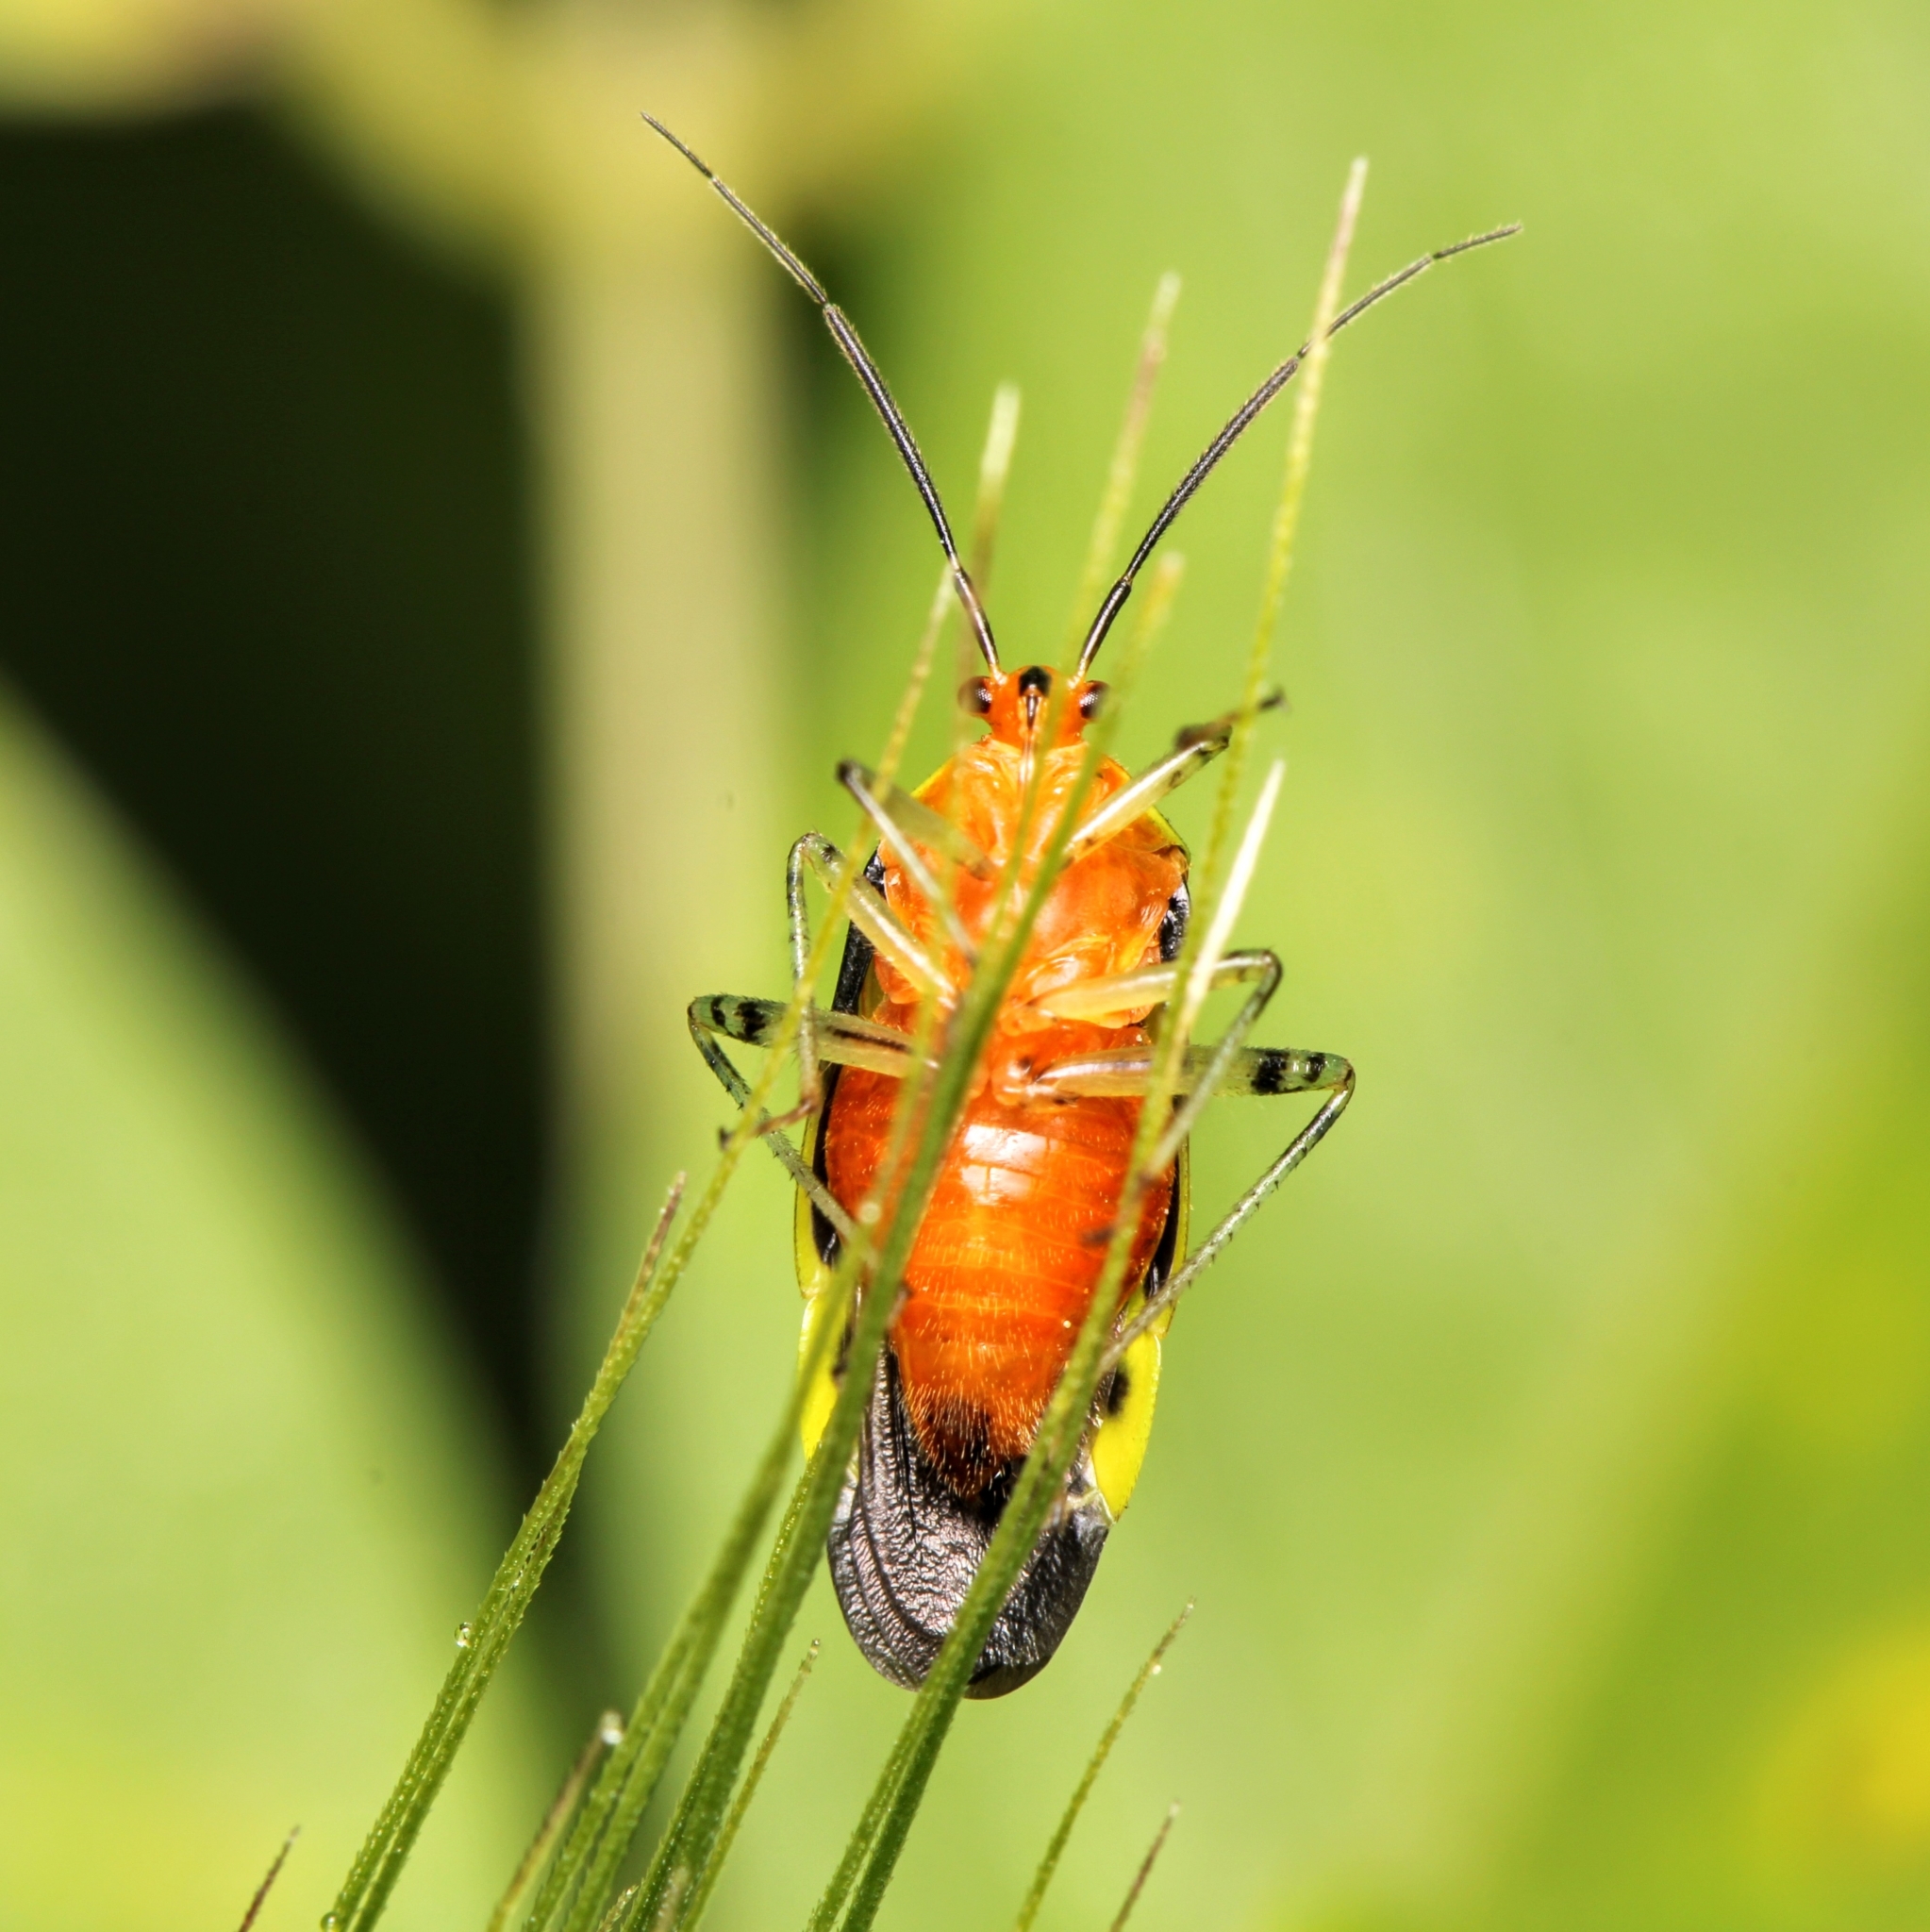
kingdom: Animalia
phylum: Arthropoda
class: Insecta
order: Hemiptera
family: Miridae
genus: Poecilocapsus
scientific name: Poecilocapsus lineatus
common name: Four-lined plant bug
